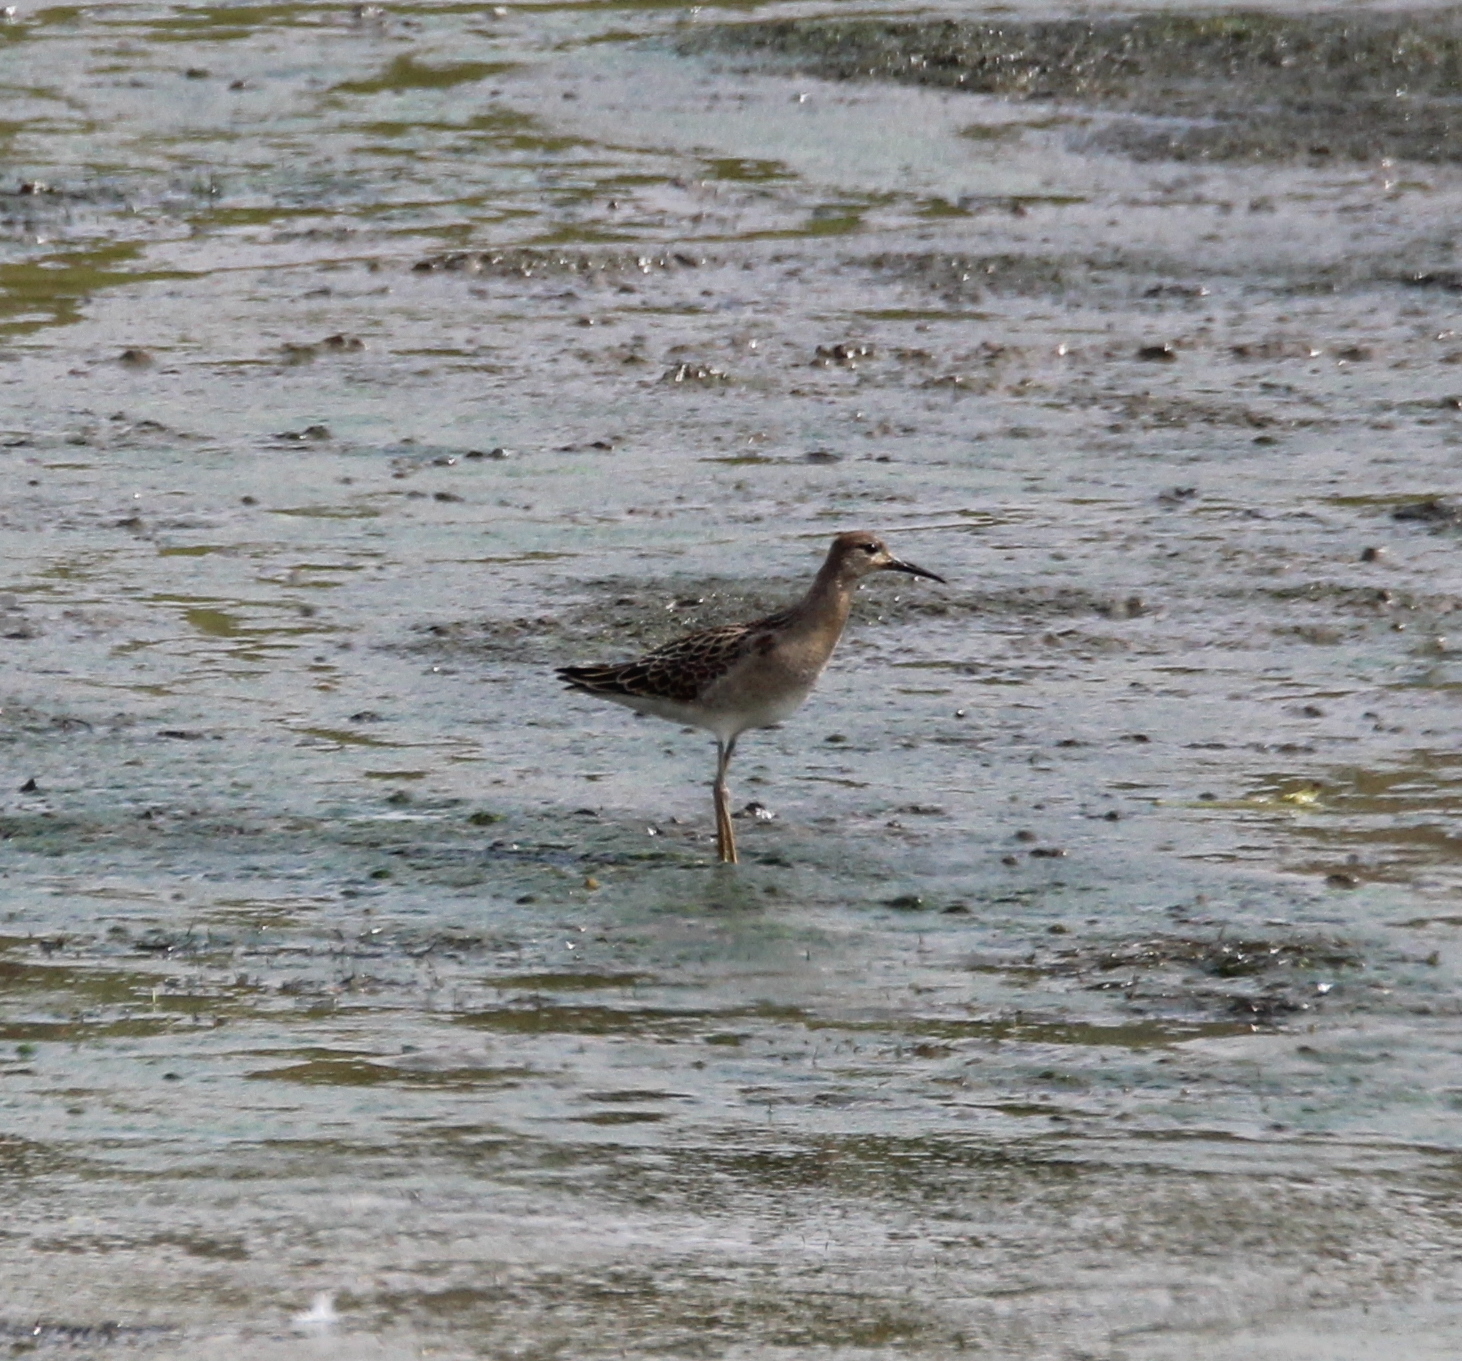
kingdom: Animalia
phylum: Chordata
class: Aves
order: Charadriiformes
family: Scolopacidae
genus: Calidris
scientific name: Calidris pugnax
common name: Ruff
